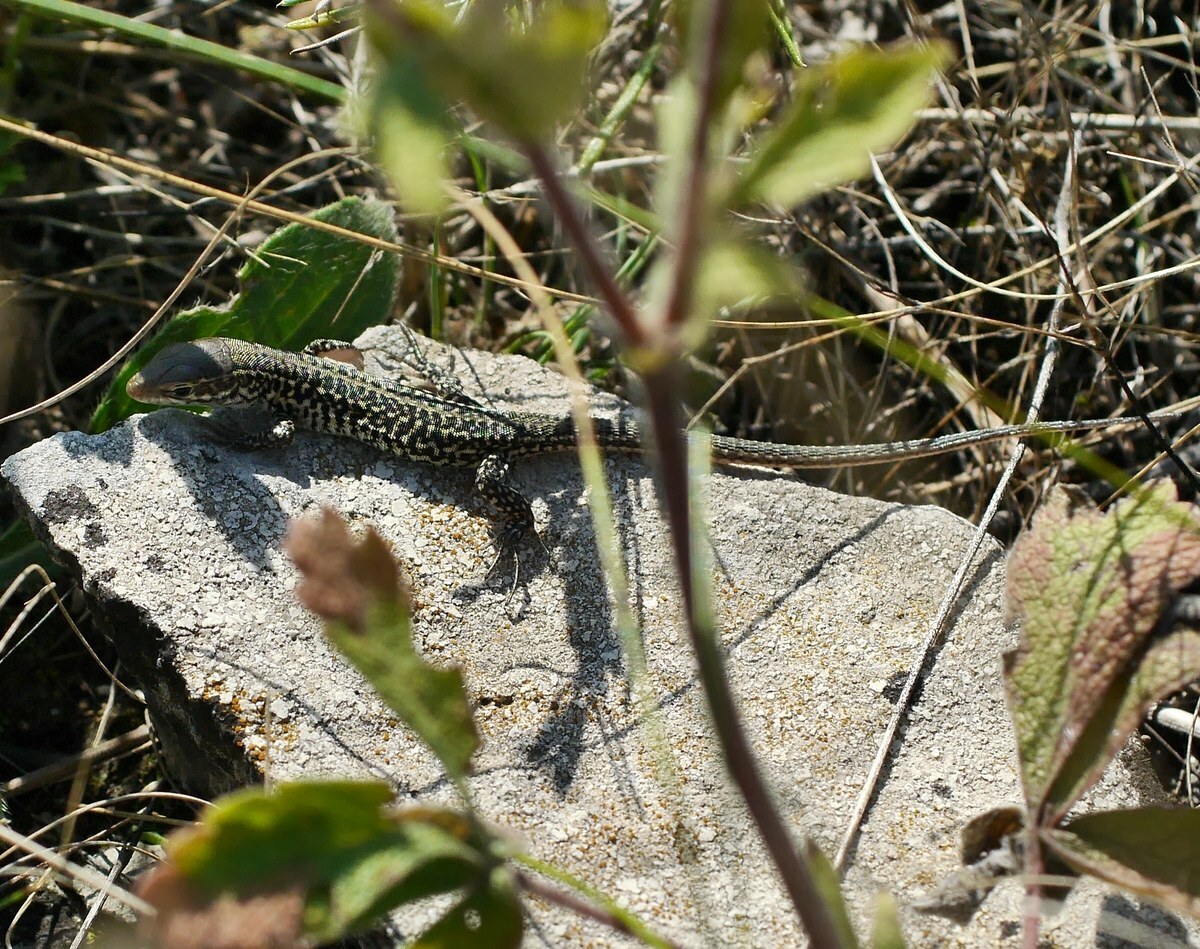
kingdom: Animalia
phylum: Chordata
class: Squamata
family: Lacertidae
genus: Podarcis
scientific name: Podarcis tauricus
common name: Balkan wall lizard
